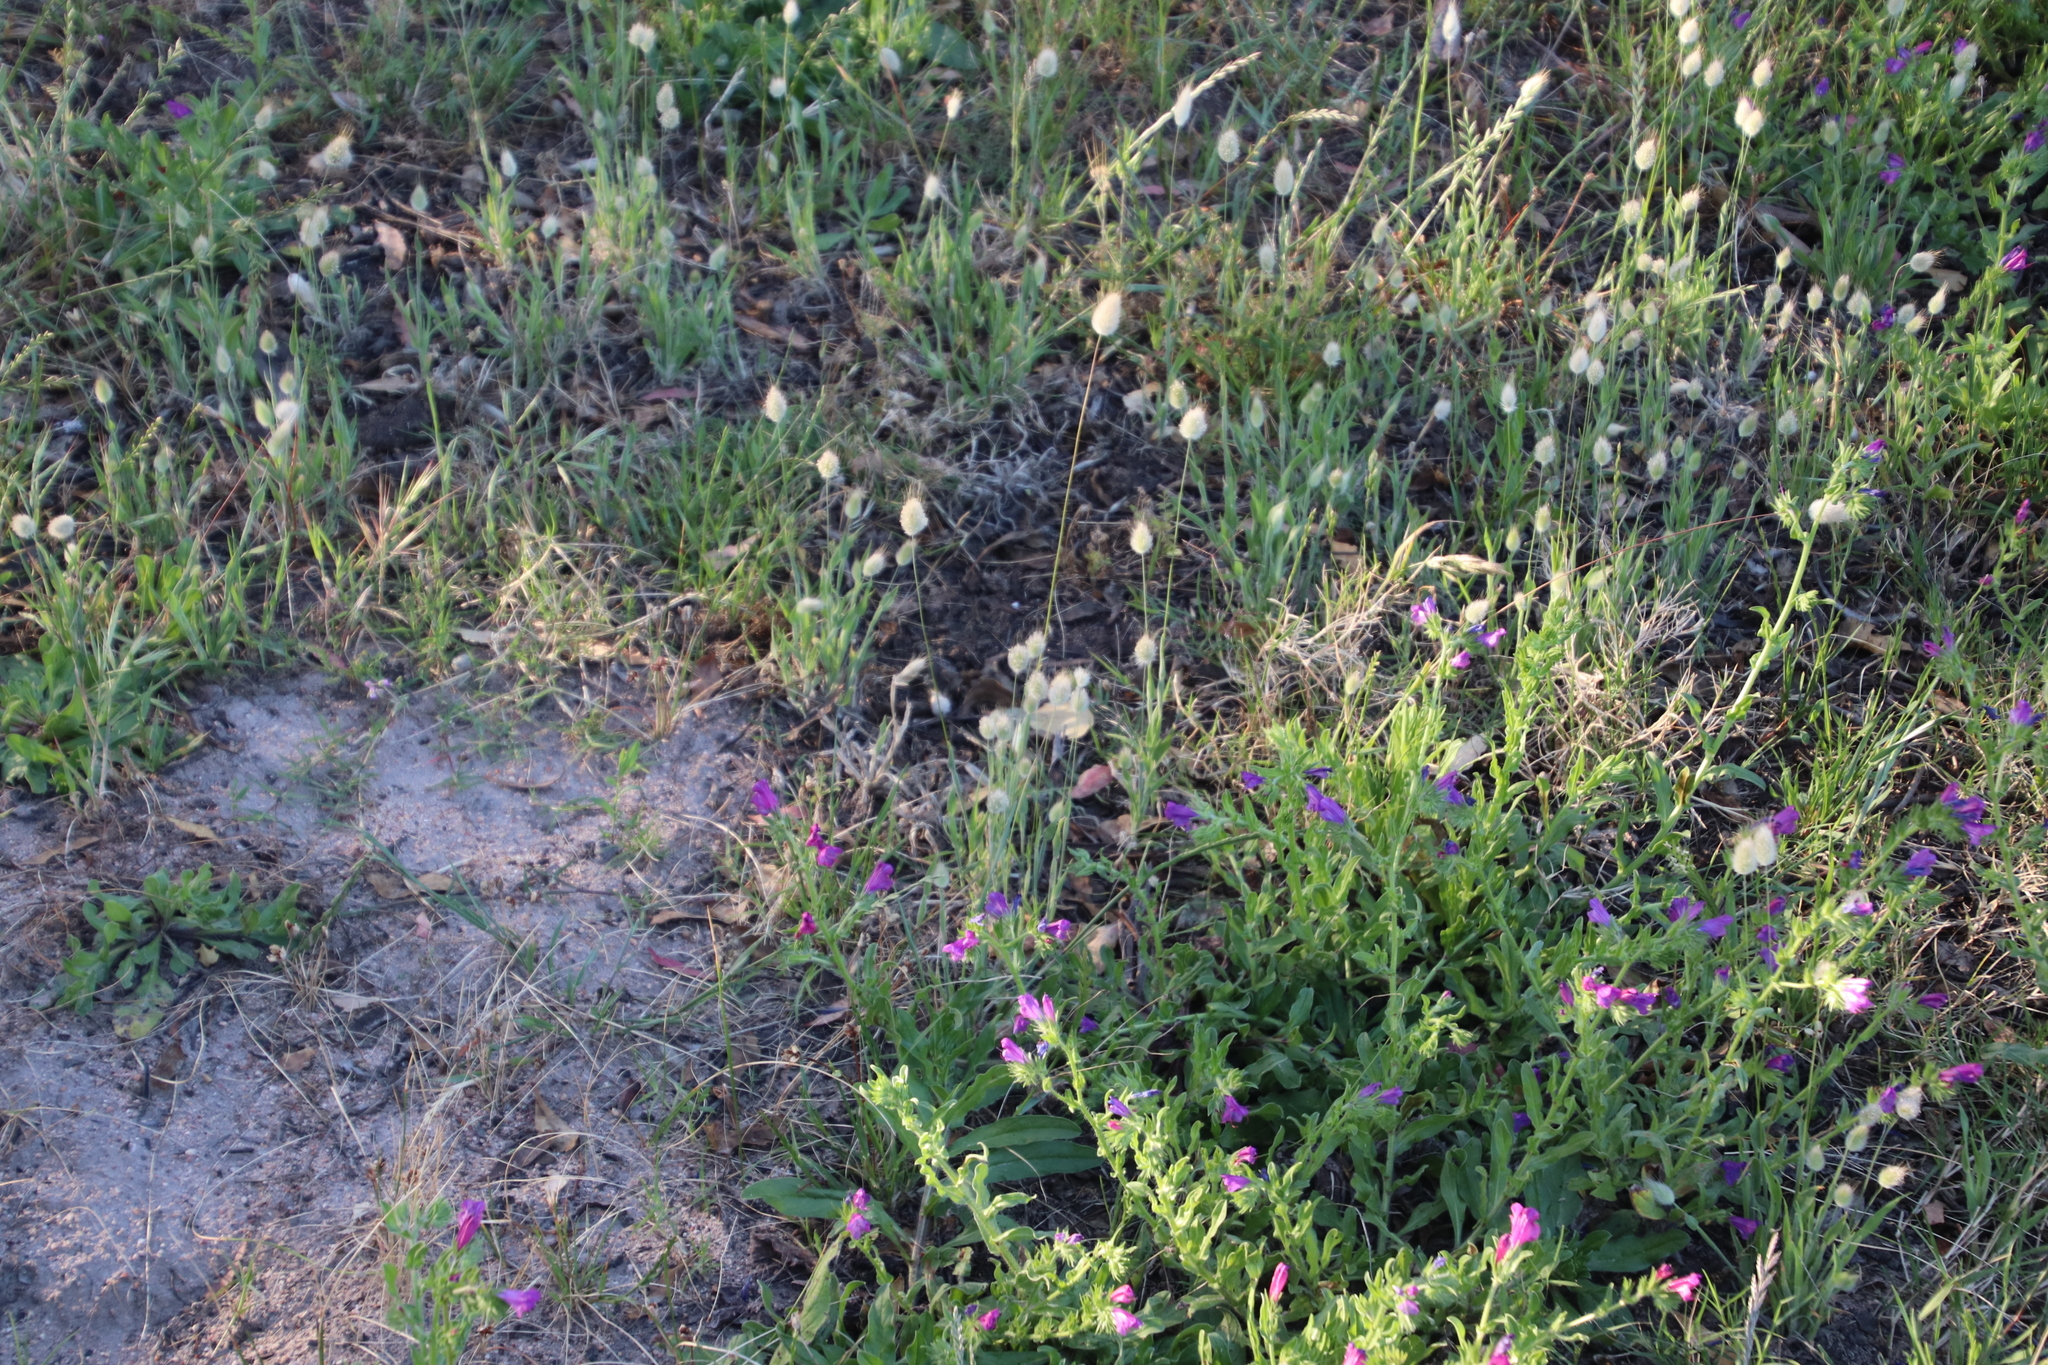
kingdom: Plantae
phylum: Tracheophyta
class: Liliopsida
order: Poales
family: Poaceae
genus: Lagurus
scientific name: Lagurus ovatus
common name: Hare's-tail
